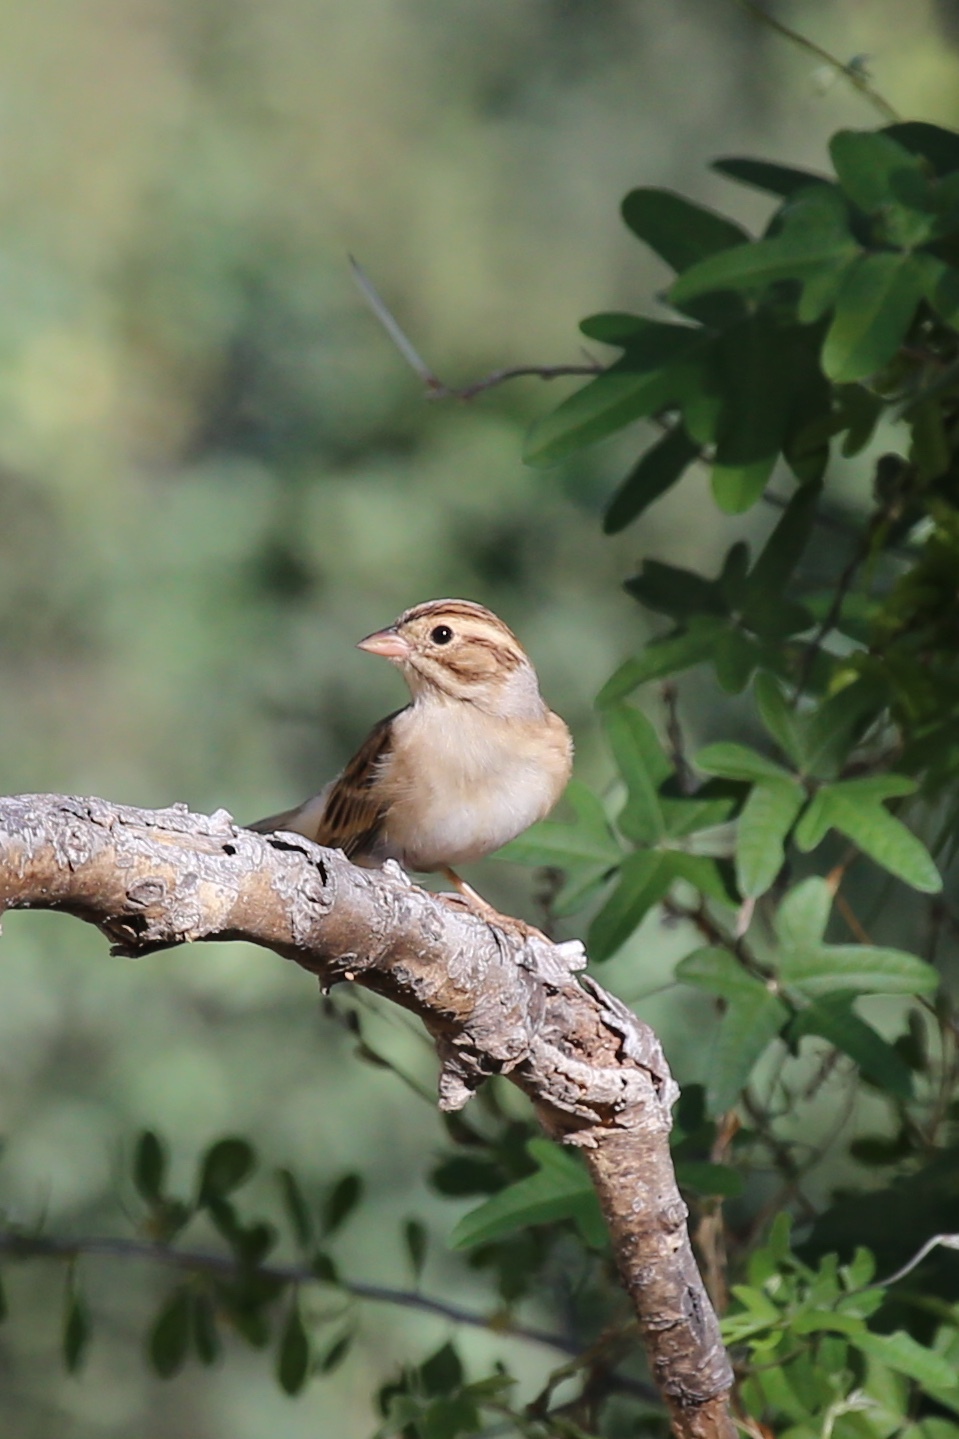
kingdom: Animalia
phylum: Chordata
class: Aves
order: Passeriformes
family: Passerellidae
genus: Spizella
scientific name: Spizella pallida
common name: Clay-colored sparrow
